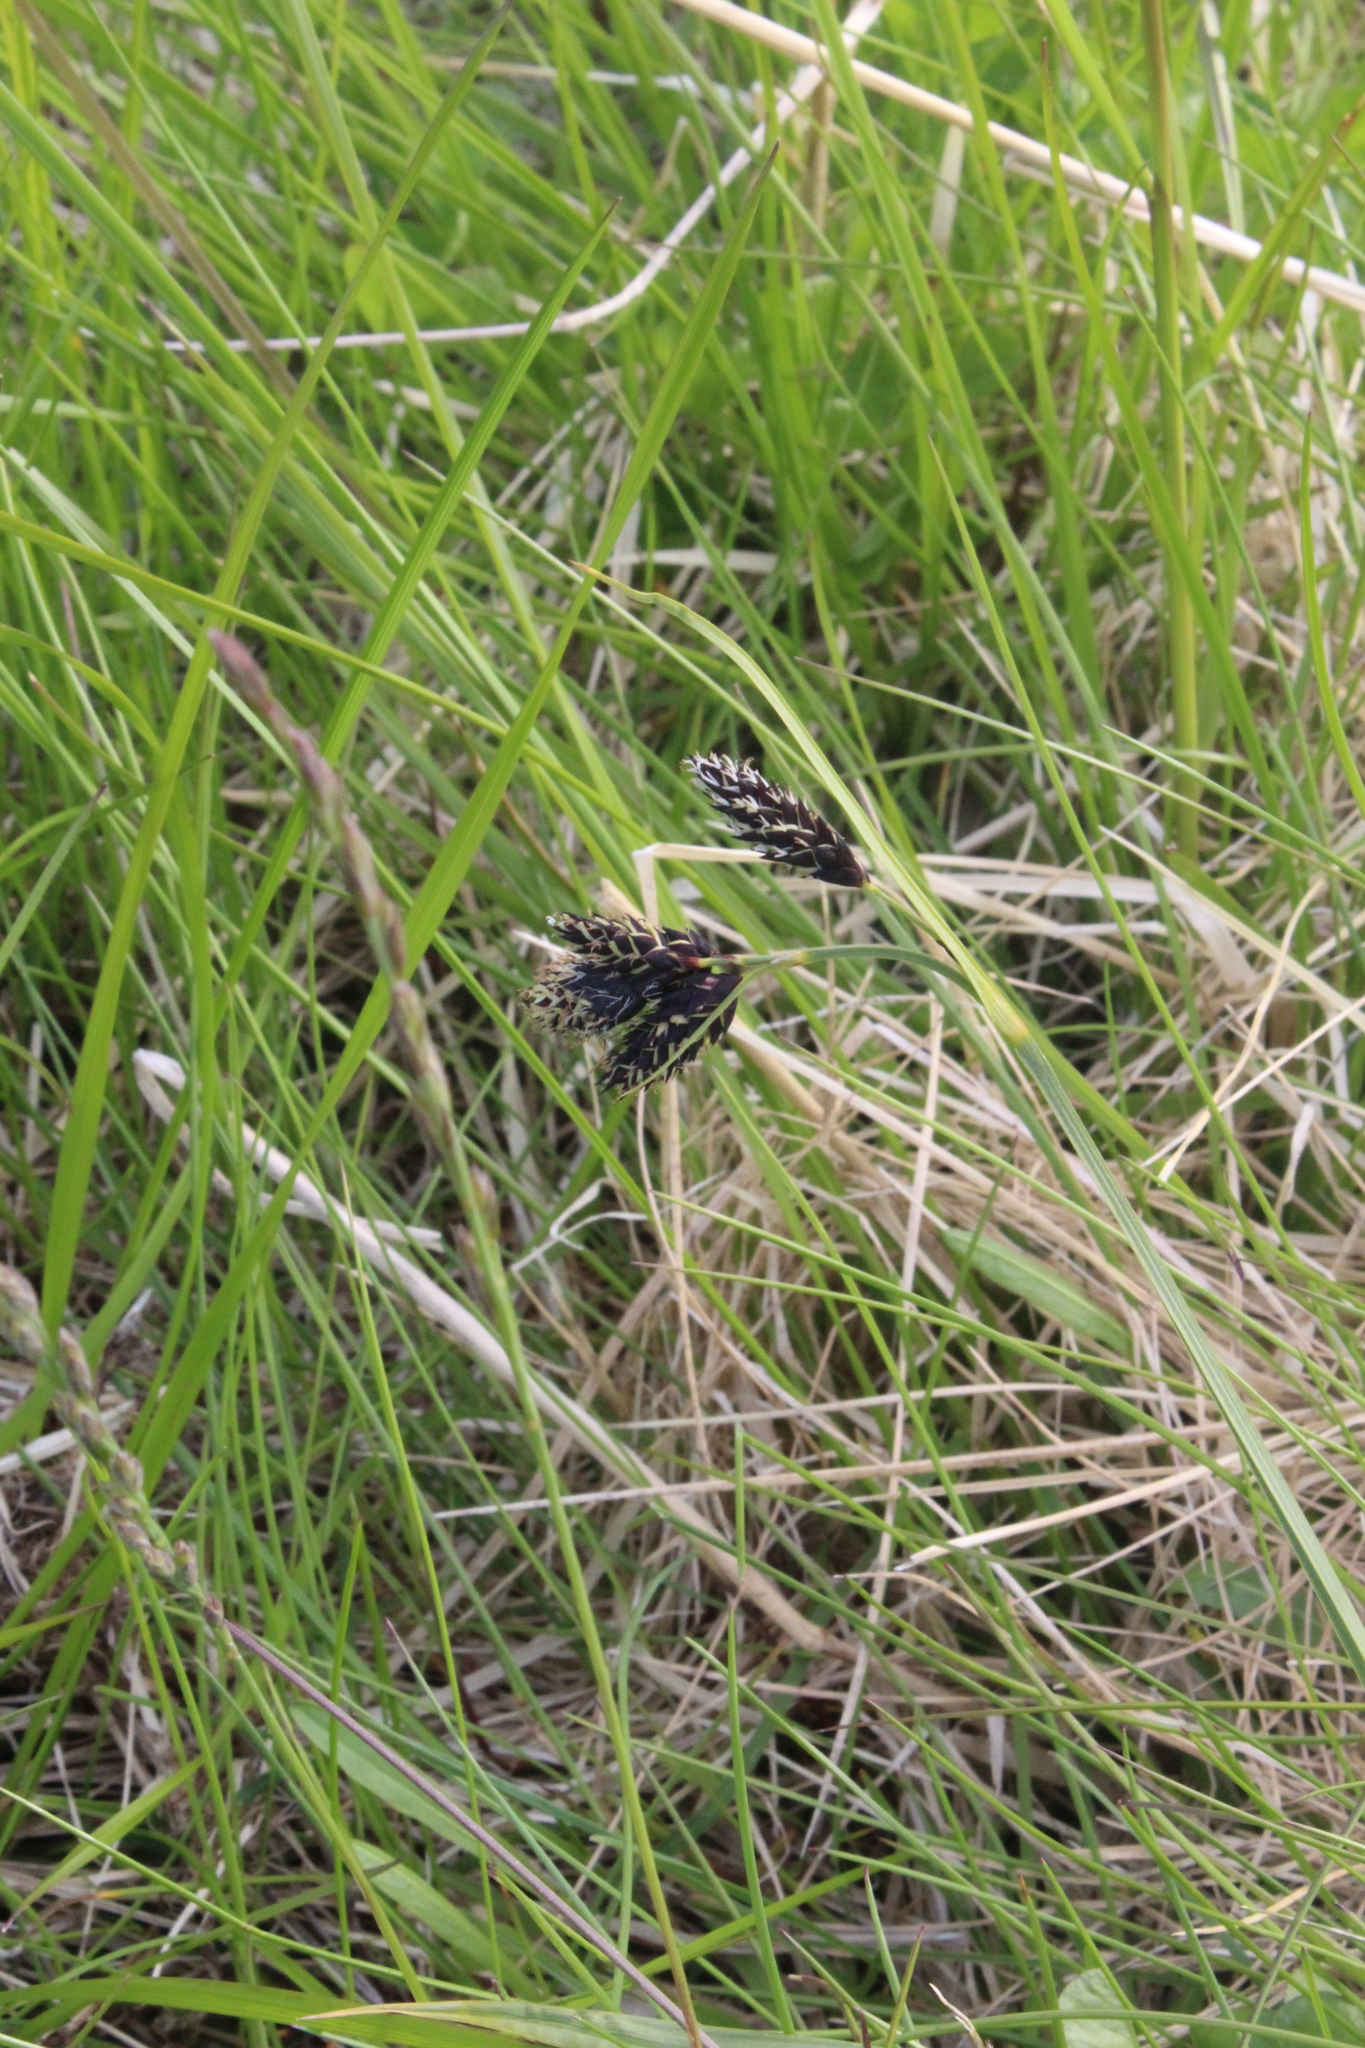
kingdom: Plantae
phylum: Tracheophyta
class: Liliopsida
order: Poales
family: Cyperaceae
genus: Carex
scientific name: Carex atrata
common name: Black alpine sedge
